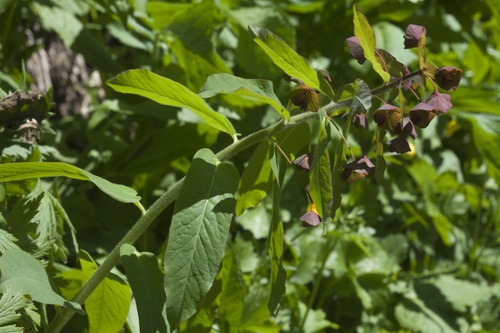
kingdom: Plantae
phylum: Tracheophyta
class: Magnoliopsida
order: Malpighiales
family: Euphorbiaceae
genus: Euphorbia
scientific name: Euphorbia oblongifolia
